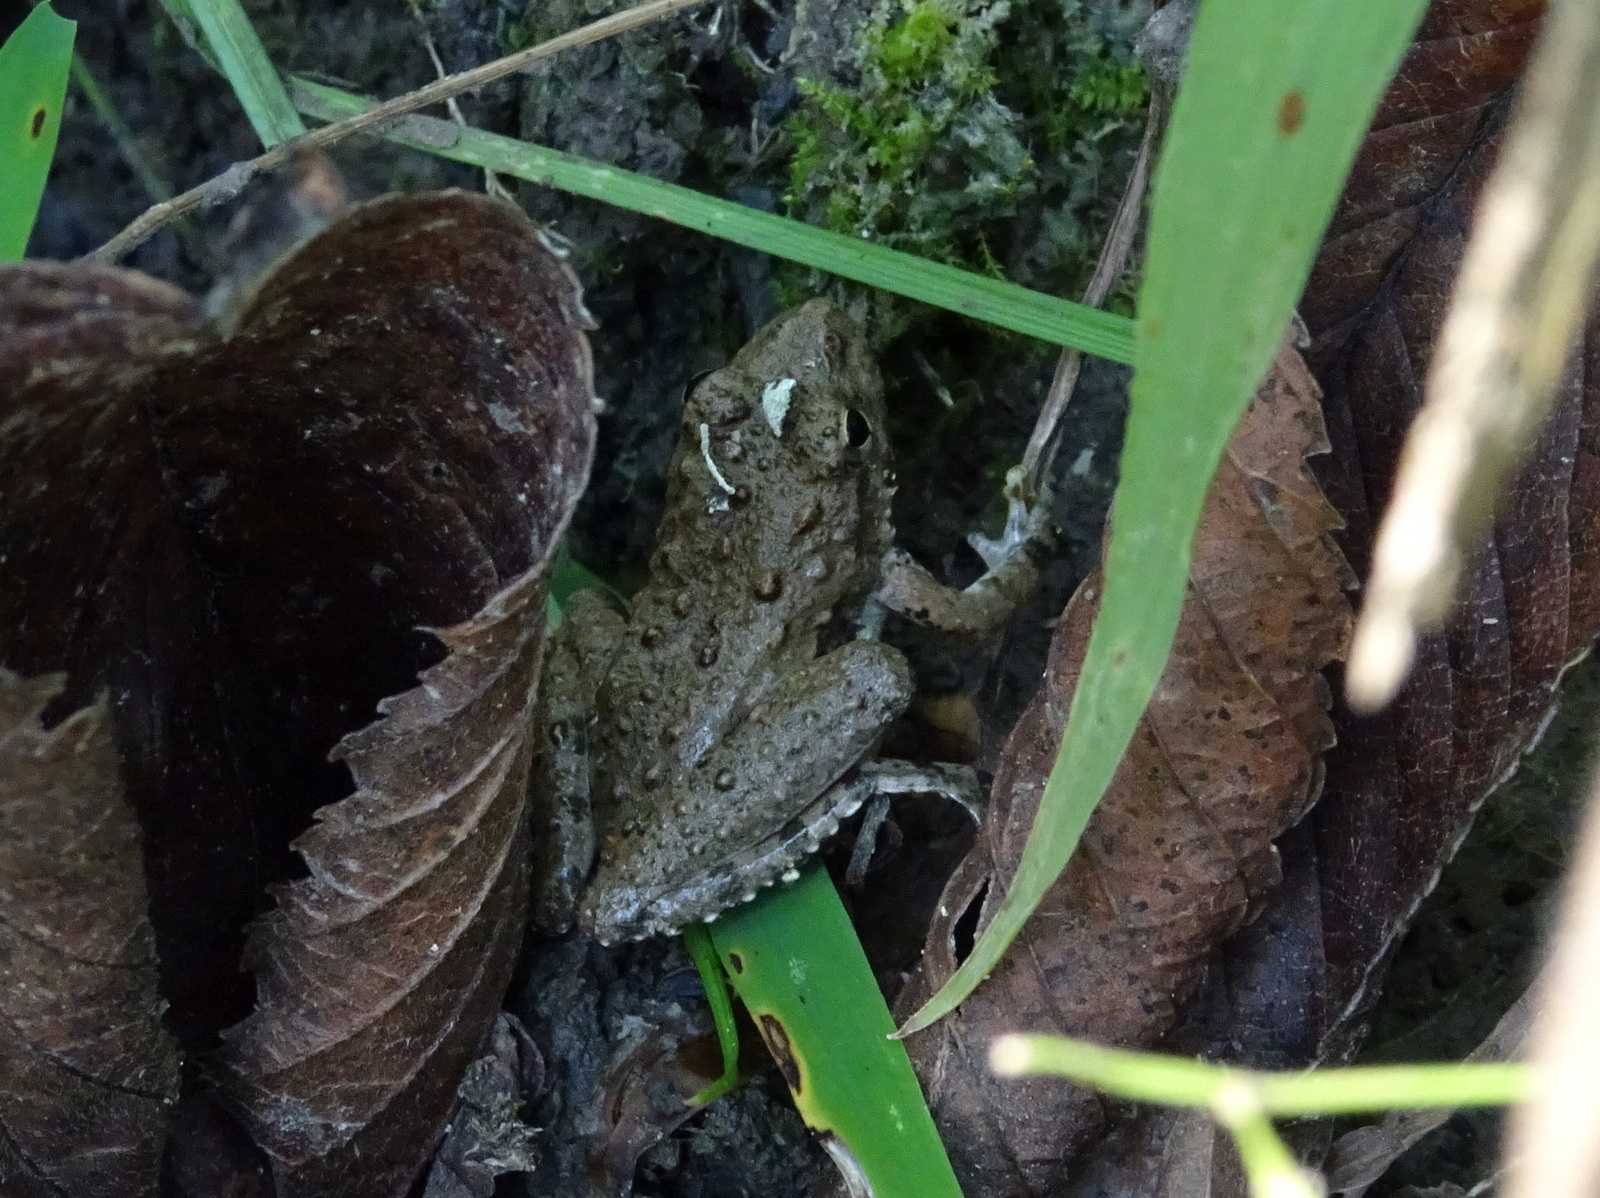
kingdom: Animalia
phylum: Chordata
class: Amphibia
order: Anura
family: Hylidae
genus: Acris
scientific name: Acris blanchardi
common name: Blanchard's cricket frog
